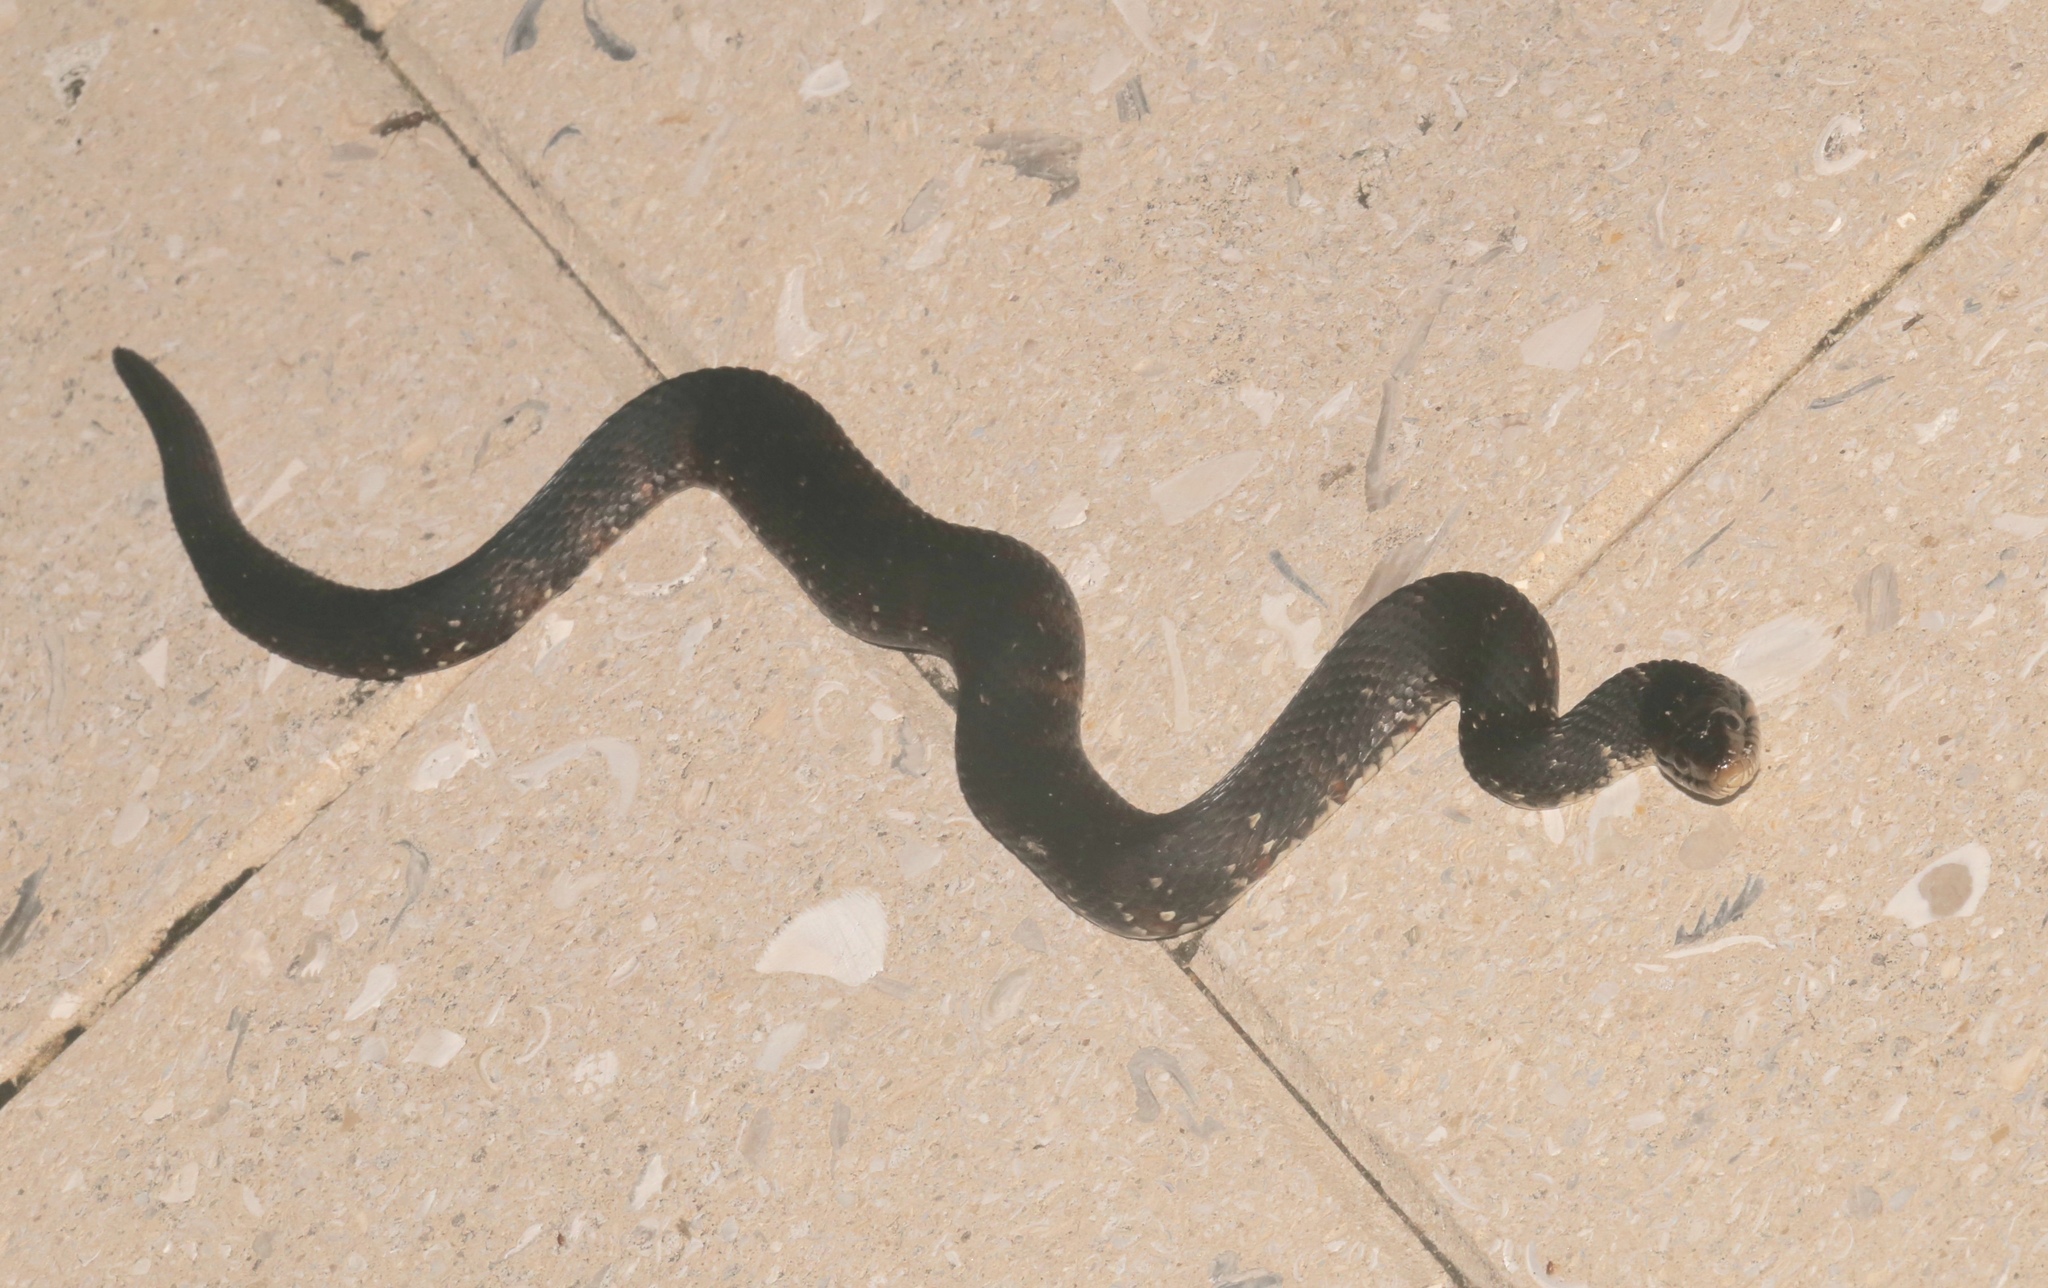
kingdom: Animalia
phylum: Chordata
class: Squamata
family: Colubridae
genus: Nerodia
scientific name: Nerodia fasciata
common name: Southern water snake
